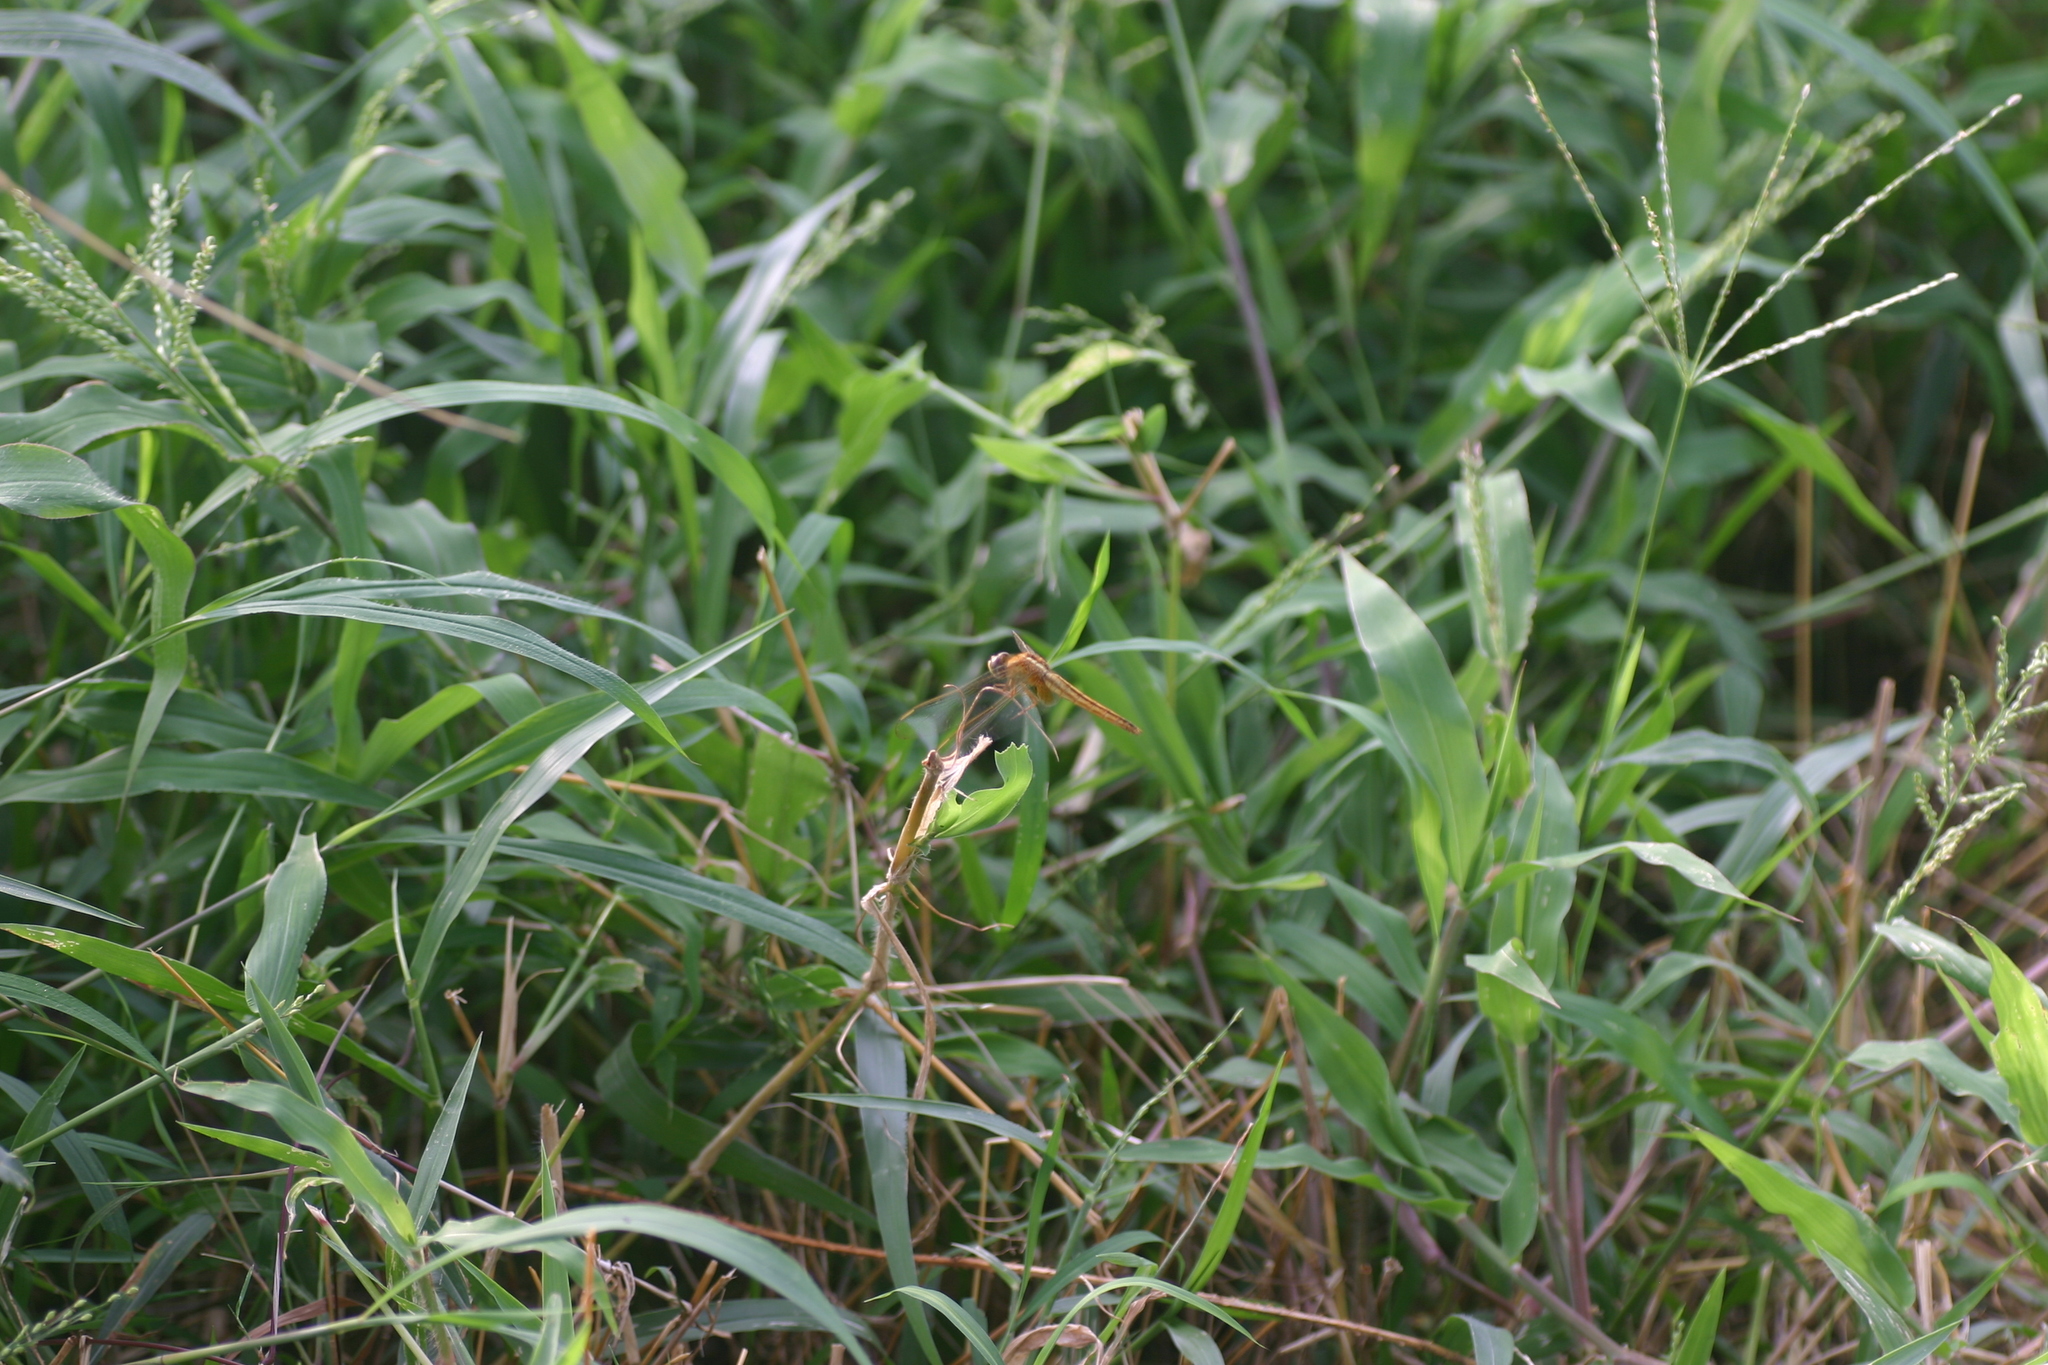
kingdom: Animalia
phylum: Arthropoda
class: Insecta
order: Odonata
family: Libellulidae
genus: Crocothemis
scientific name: Crocothemis servilia
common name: Scarlet skimmer
